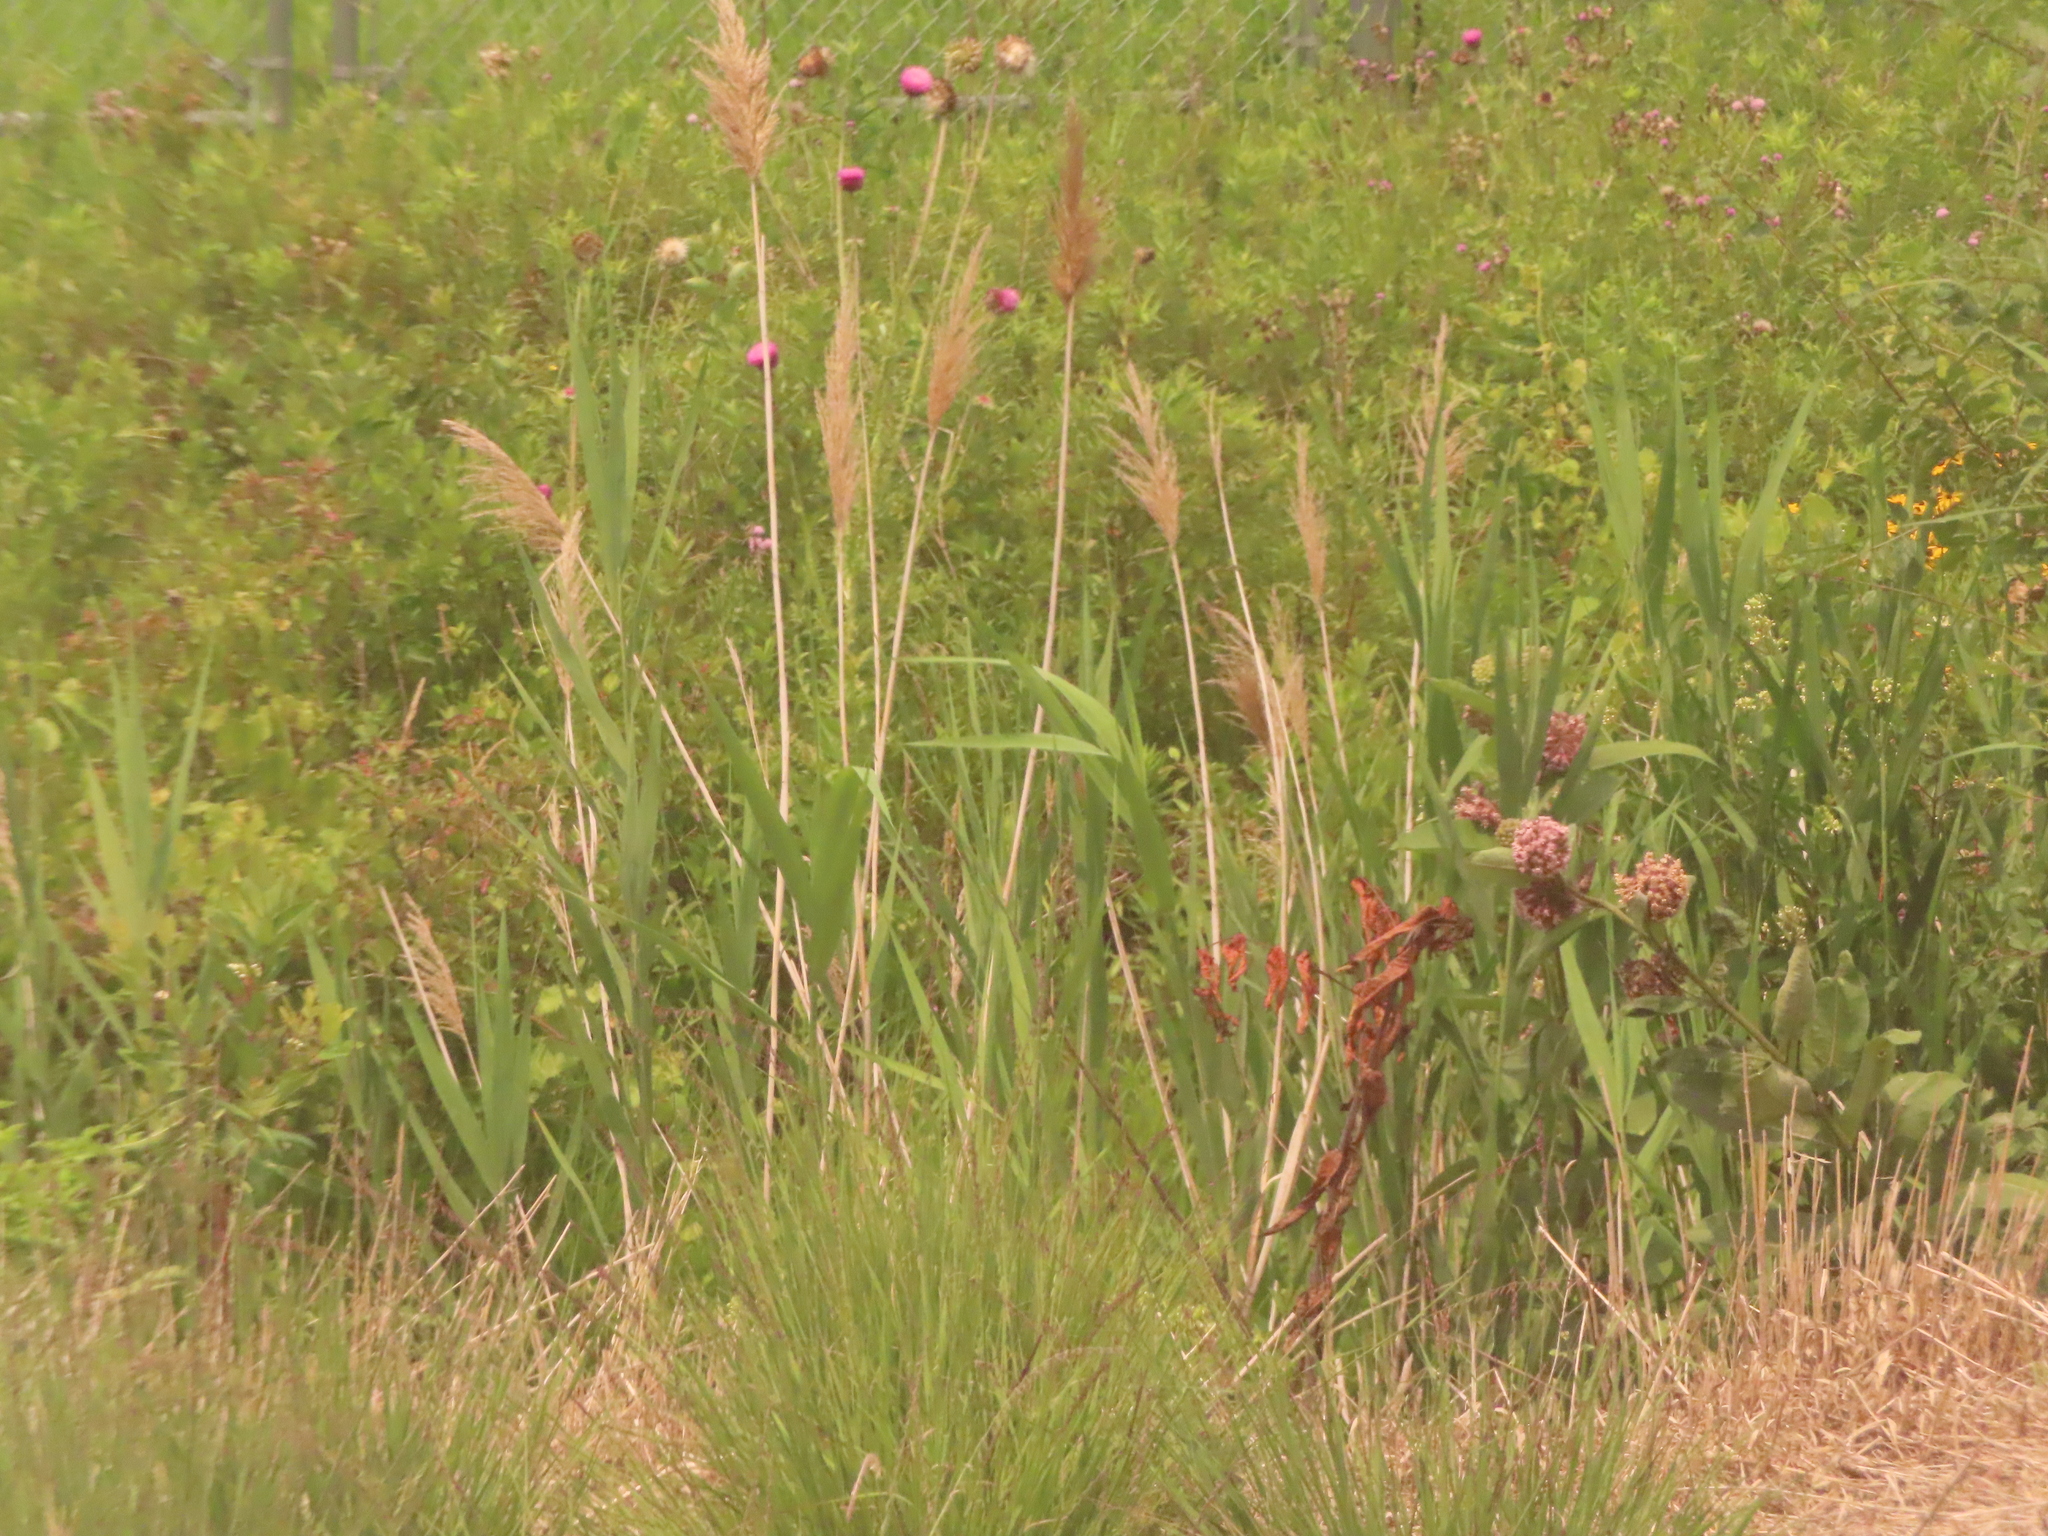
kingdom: Plantae
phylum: Tracheophyta
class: Liliopsida
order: Poales
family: Poaceae
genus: Phragmites
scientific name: Phragmites australis
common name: Common reed
